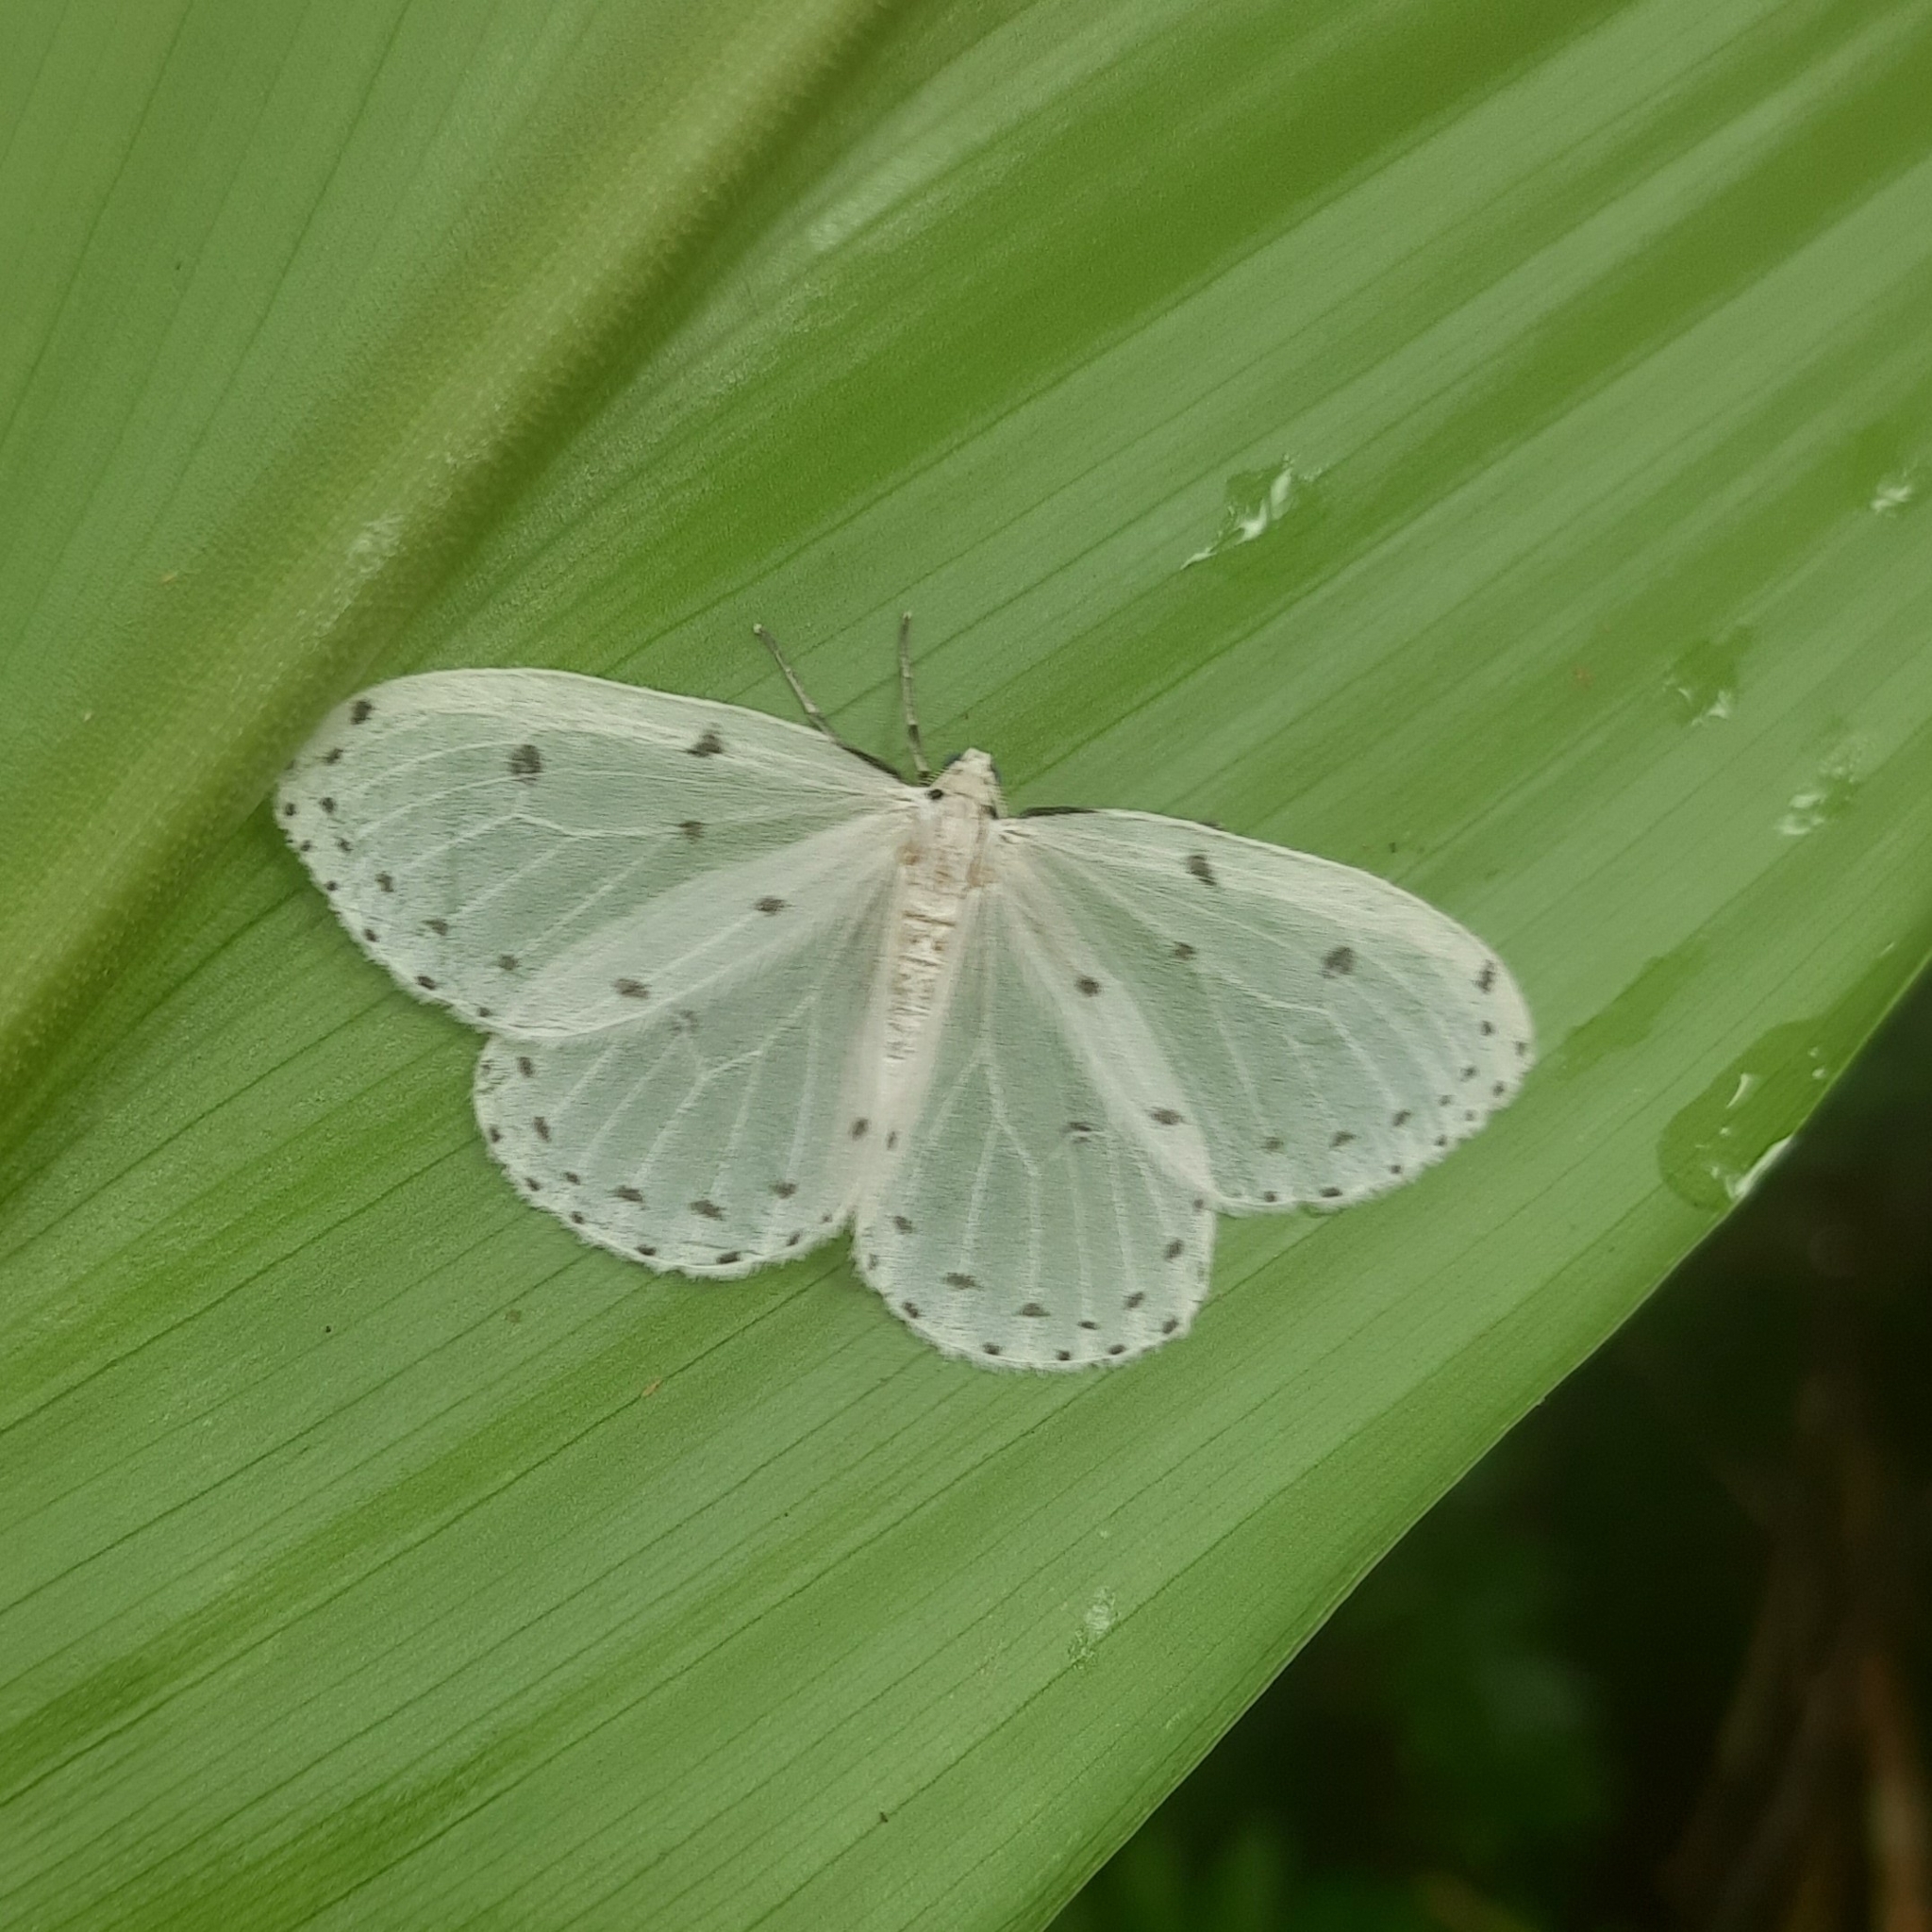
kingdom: Animalia
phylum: Arthropoda
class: Insecta
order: Lepidoptera
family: Geometridae
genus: Naxa
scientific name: Naxa textilis
